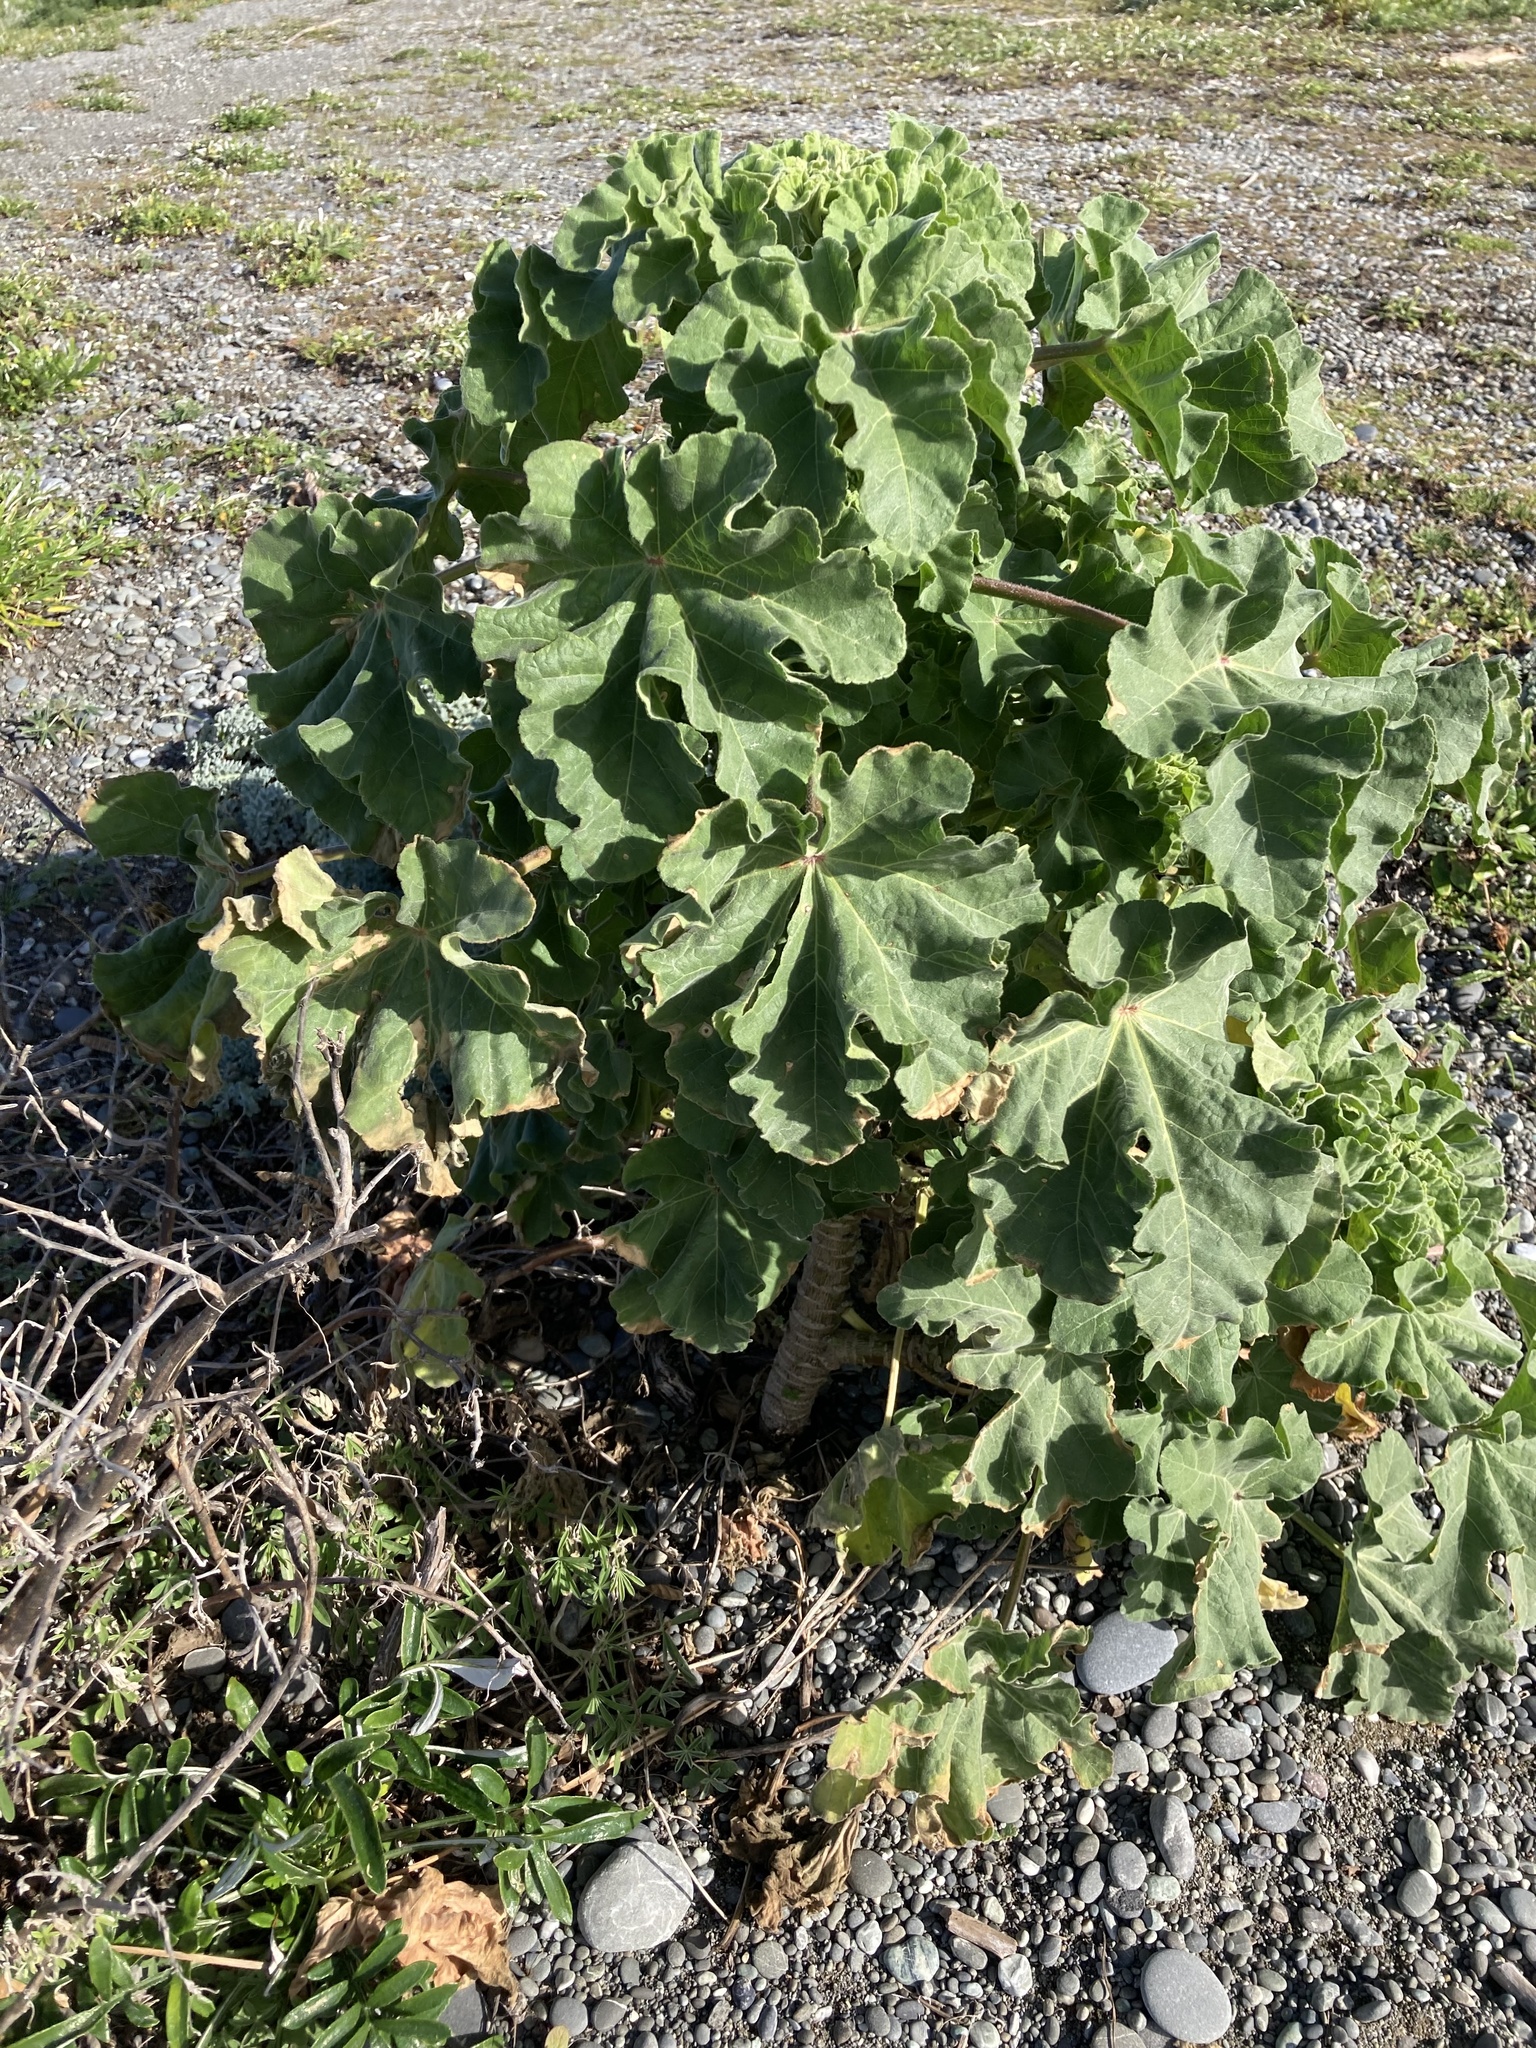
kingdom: Plantae
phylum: Tracheophyta
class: Magnoliopsida
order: Malvales
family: Malvaceae
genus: Malva
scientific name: Malva arborea
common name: Tree mallow
